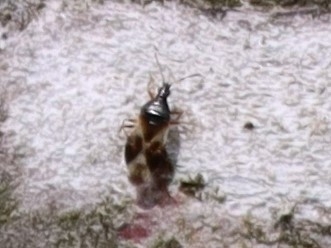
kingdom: Animalia
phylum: Arthropoda
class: Insecta
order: Hemiptera
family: Anthocoridae
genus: Anthocoris
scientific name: Anthocoris nemorum
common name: Minute pirate bug
